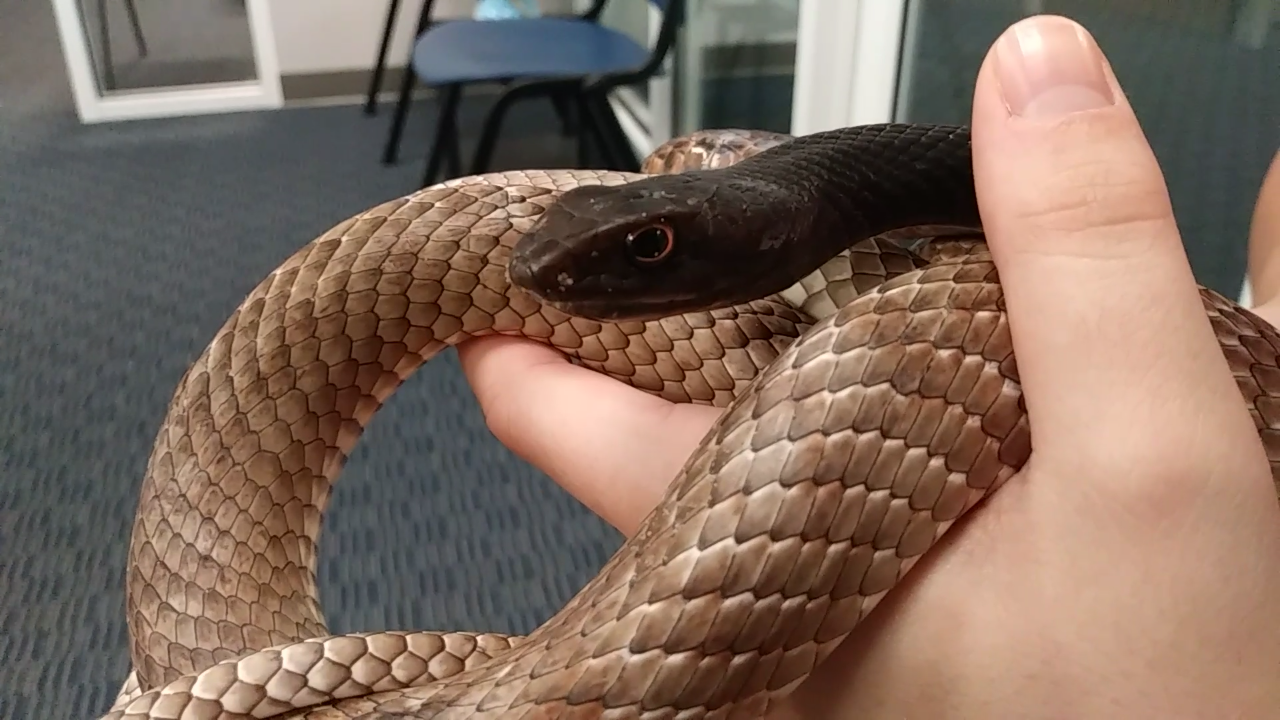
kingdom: Animalia
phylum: Chordata
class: Squamata
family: Colubridae
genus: Masticophis
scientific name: Masticophis flagellum
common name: Coachwhip
